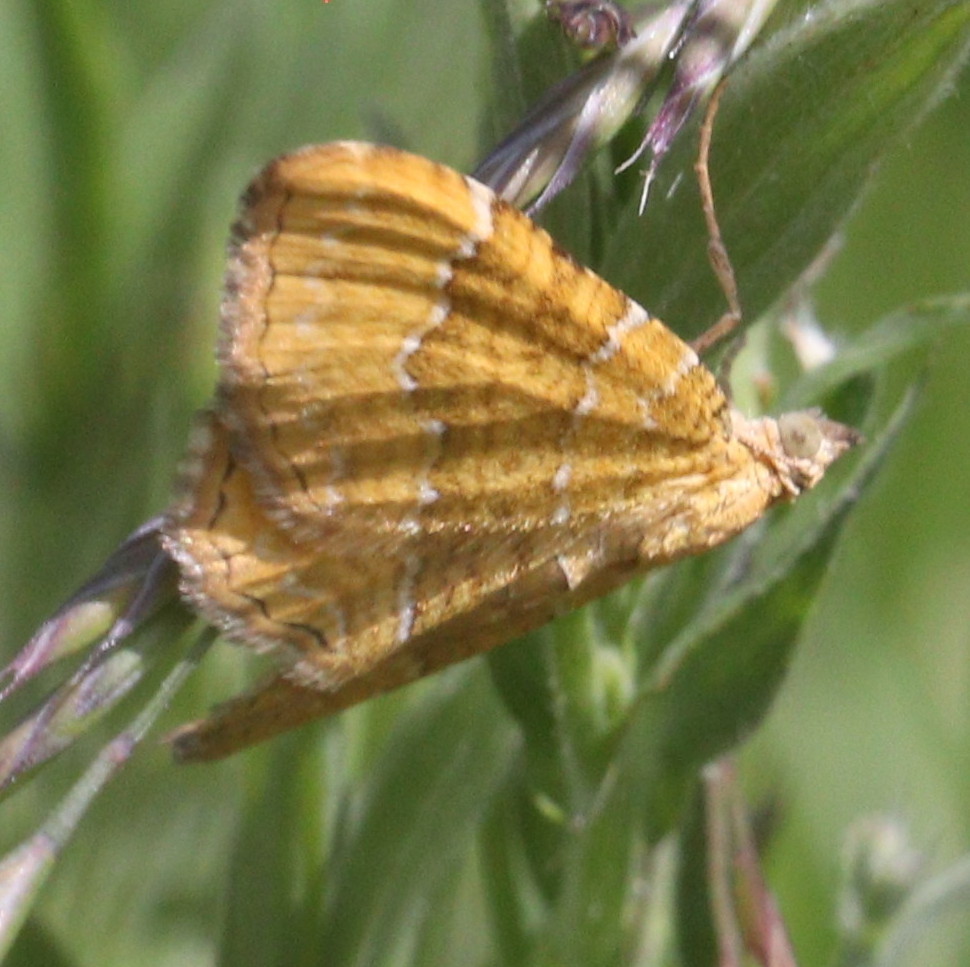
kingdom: Animalia
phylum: Arthropoda
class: Insecta
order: Lepidoptera
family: Geometridae
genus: Camptogramma
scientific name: Camptogramma bilineata
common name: Yellow shell
